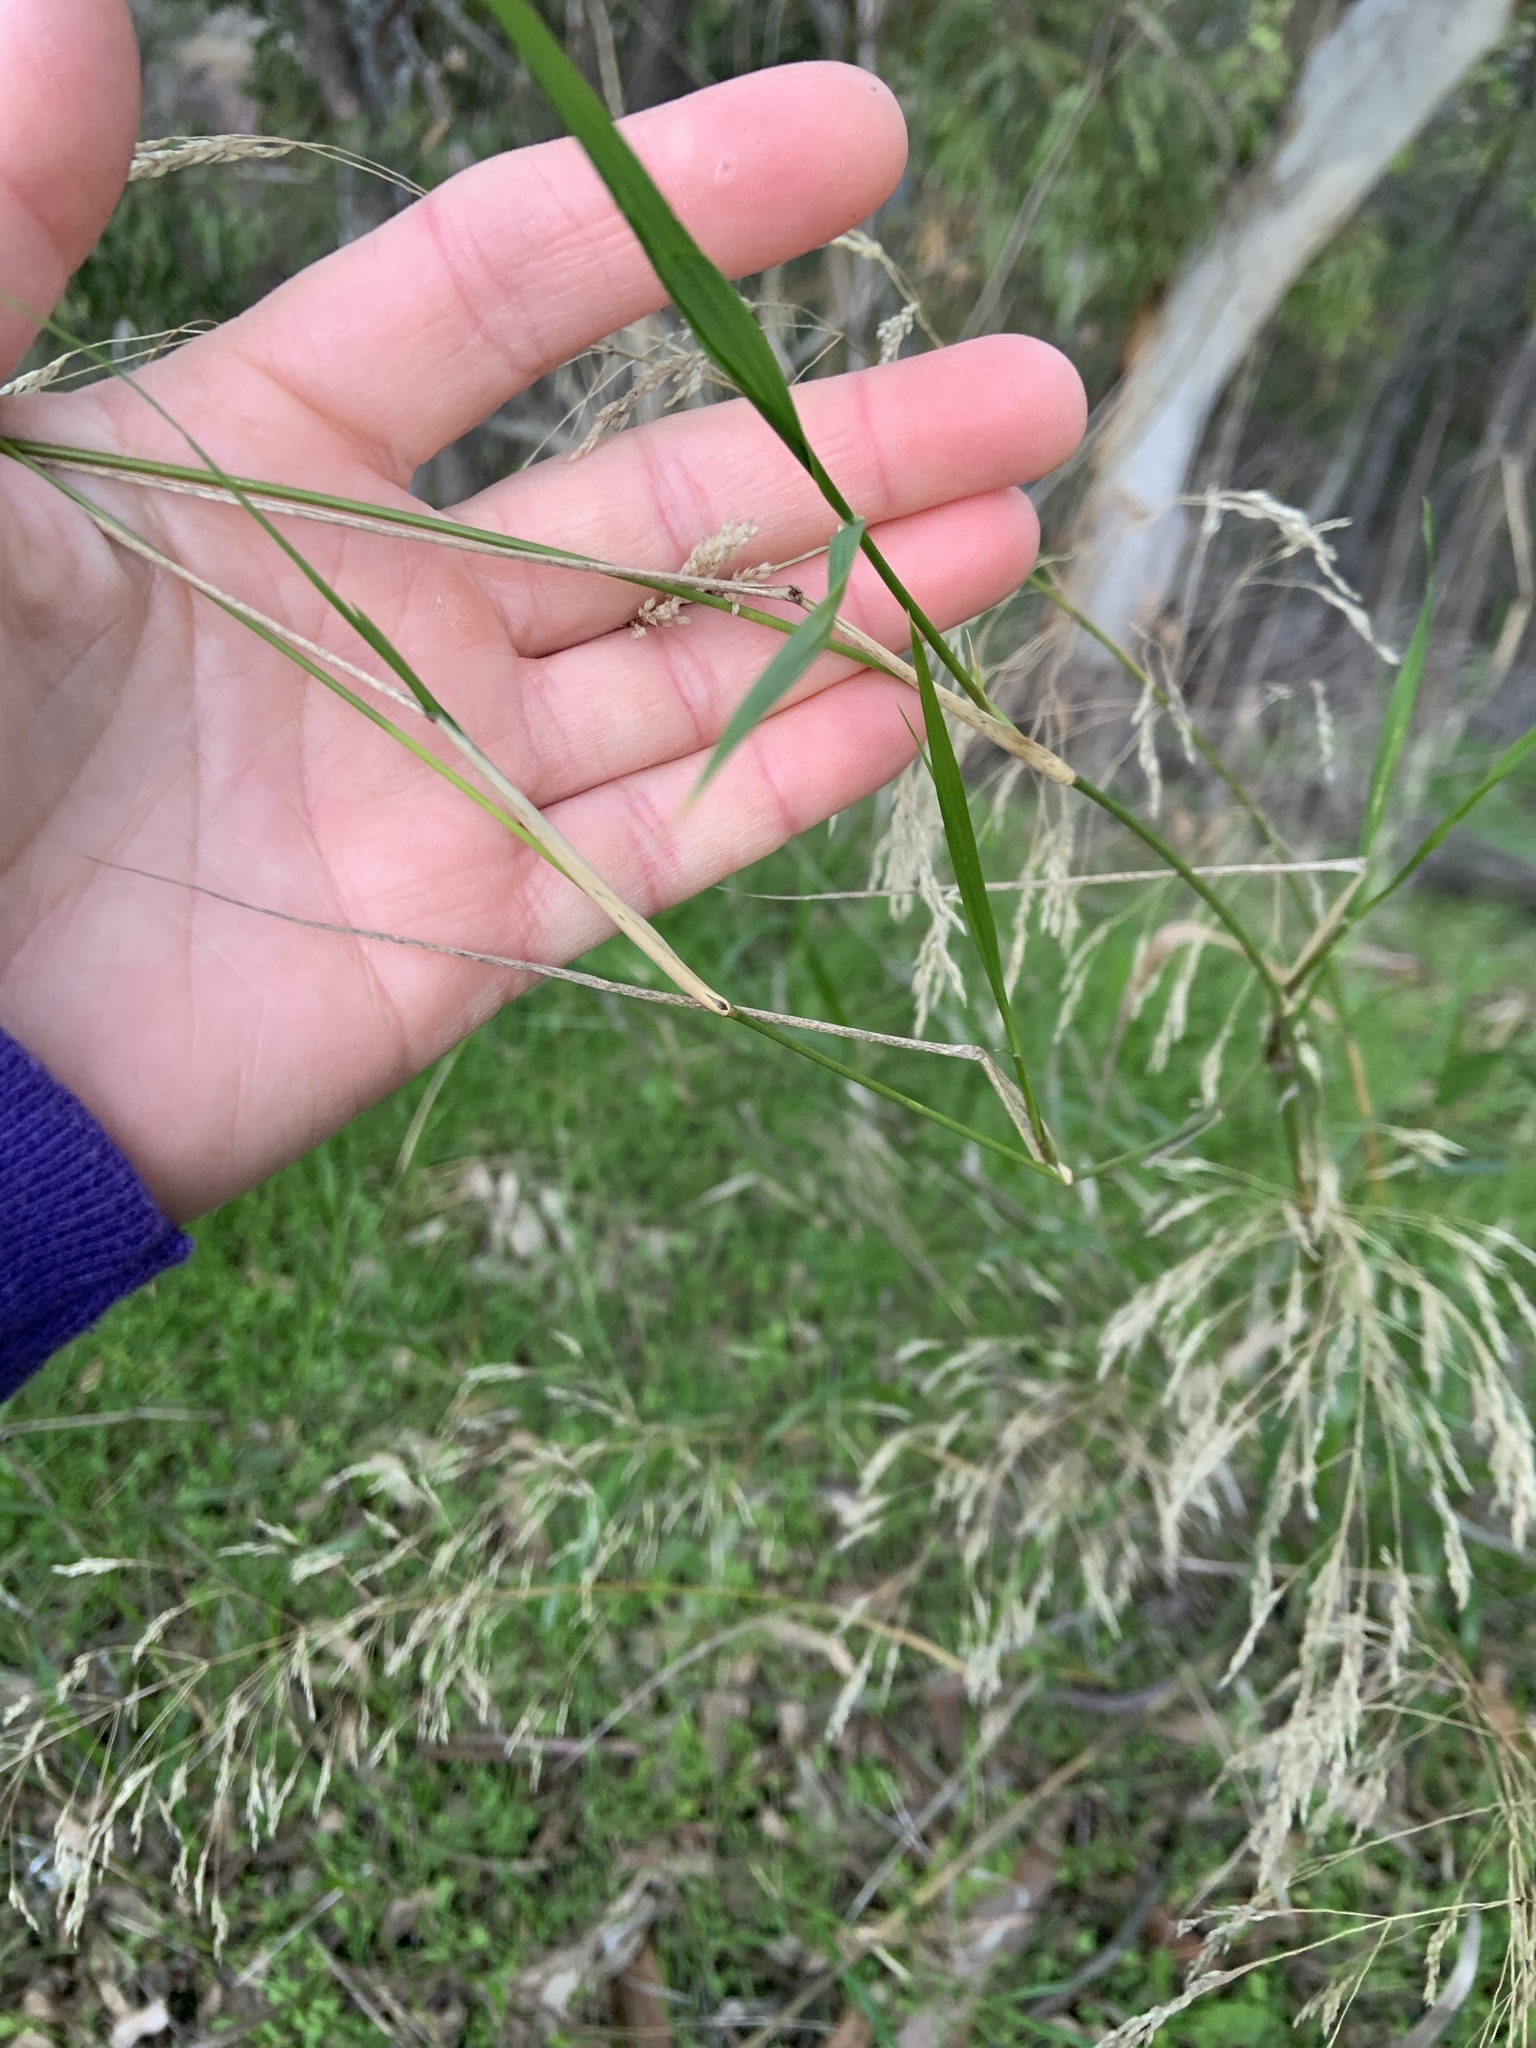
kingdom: Plantae
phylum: Tracheophyta
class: Liliopsida
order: Poales
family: Poaceae
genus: Oloptum
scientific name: Oloptum miliaceum
